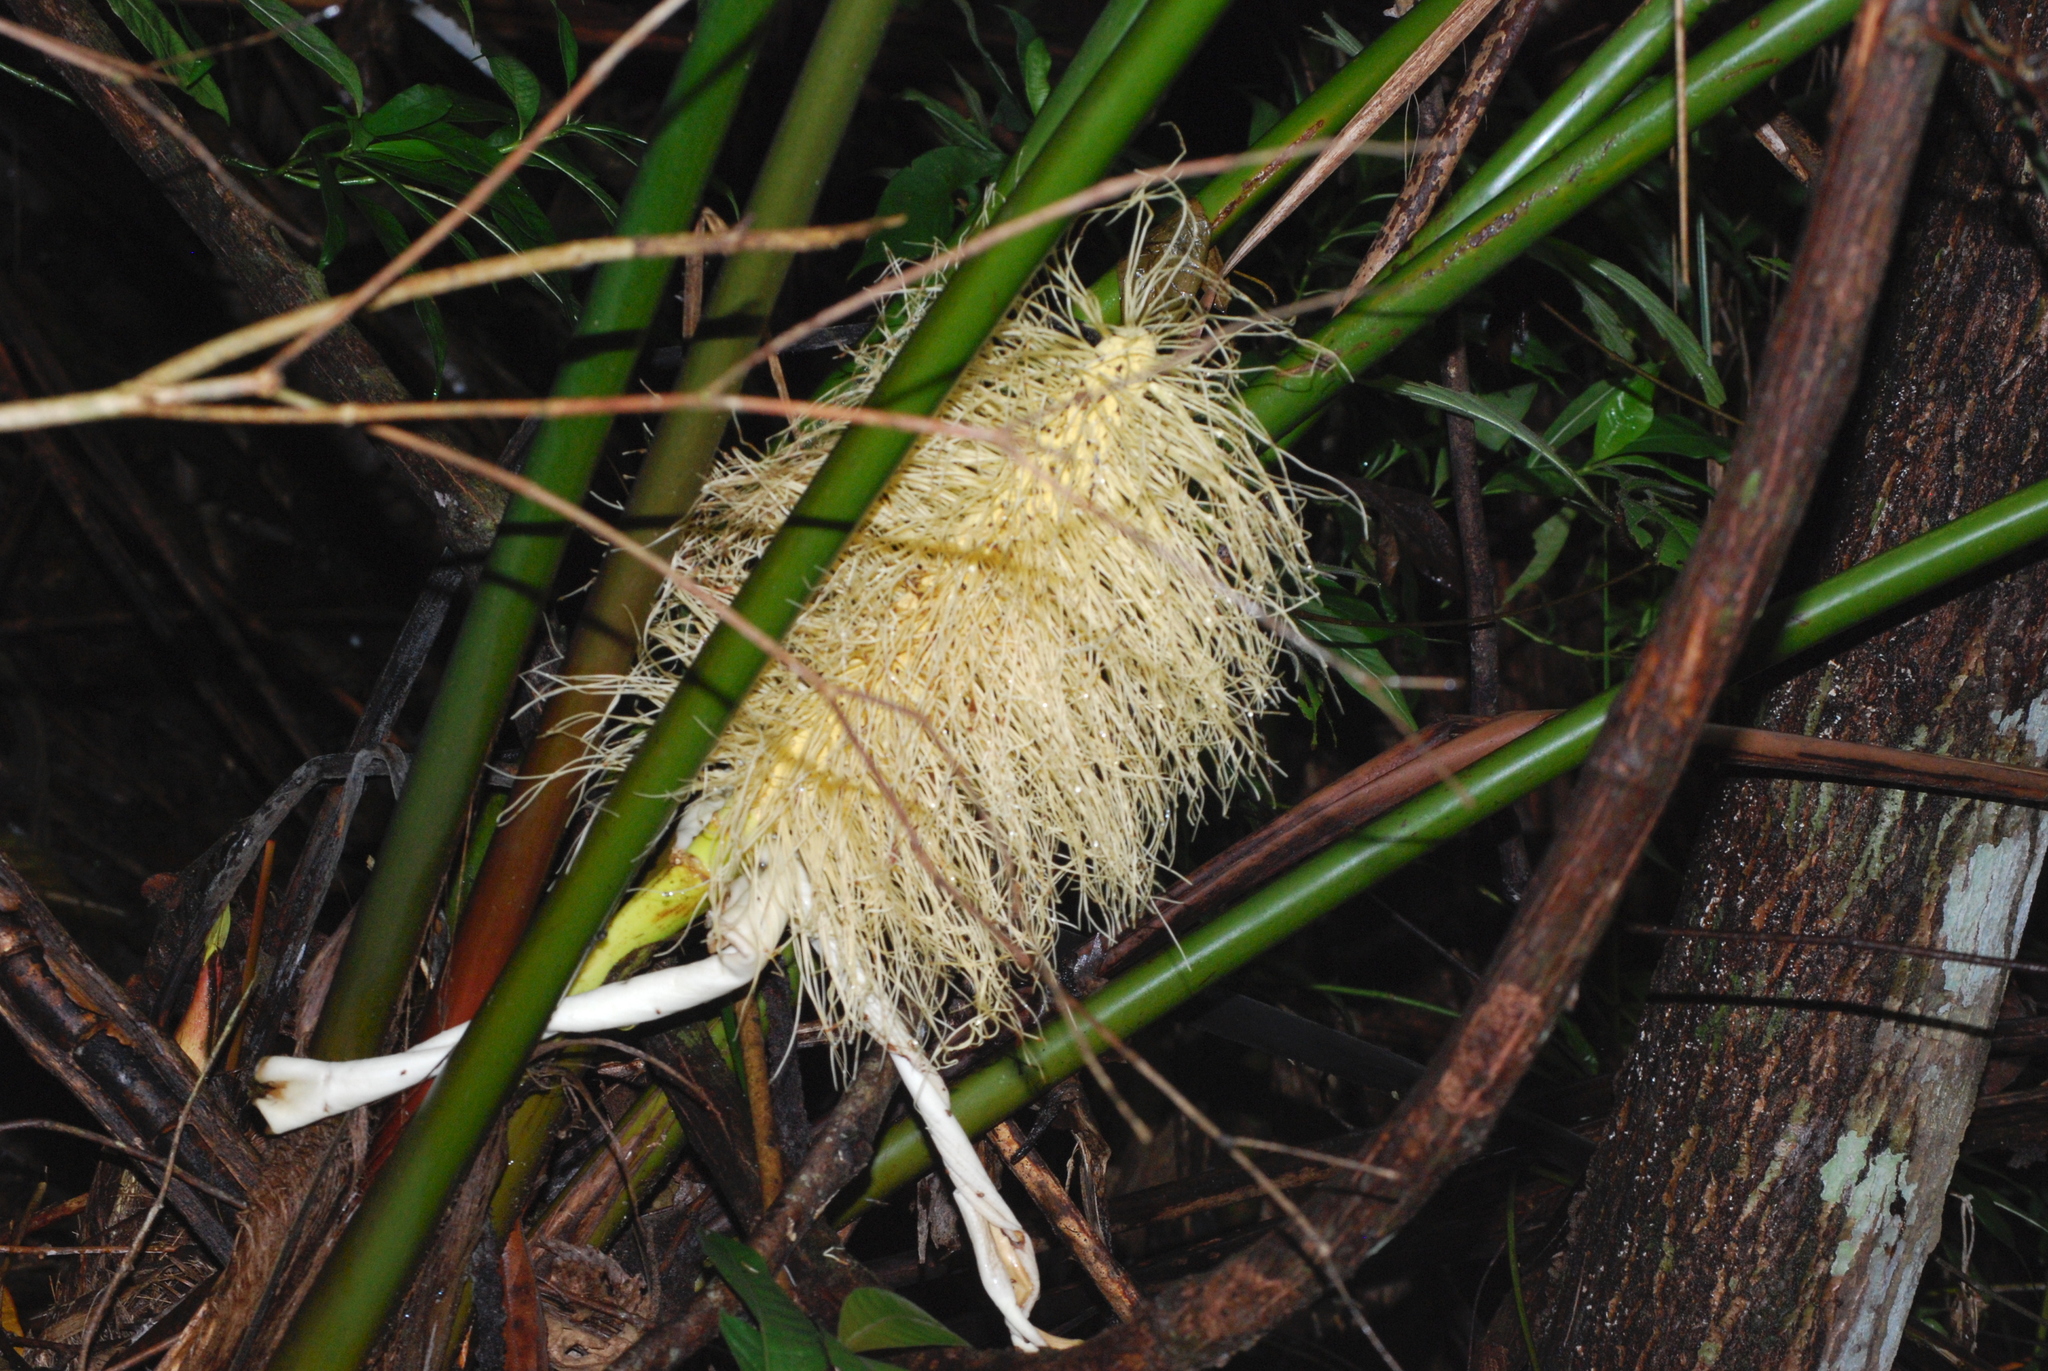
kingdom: Plantae
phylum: Tracheophyta
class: Liliopsida
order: Pandanales
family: Cyclanthaceae
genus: Carludovica
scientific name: Carludovica palmata
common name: Panama hat plant
